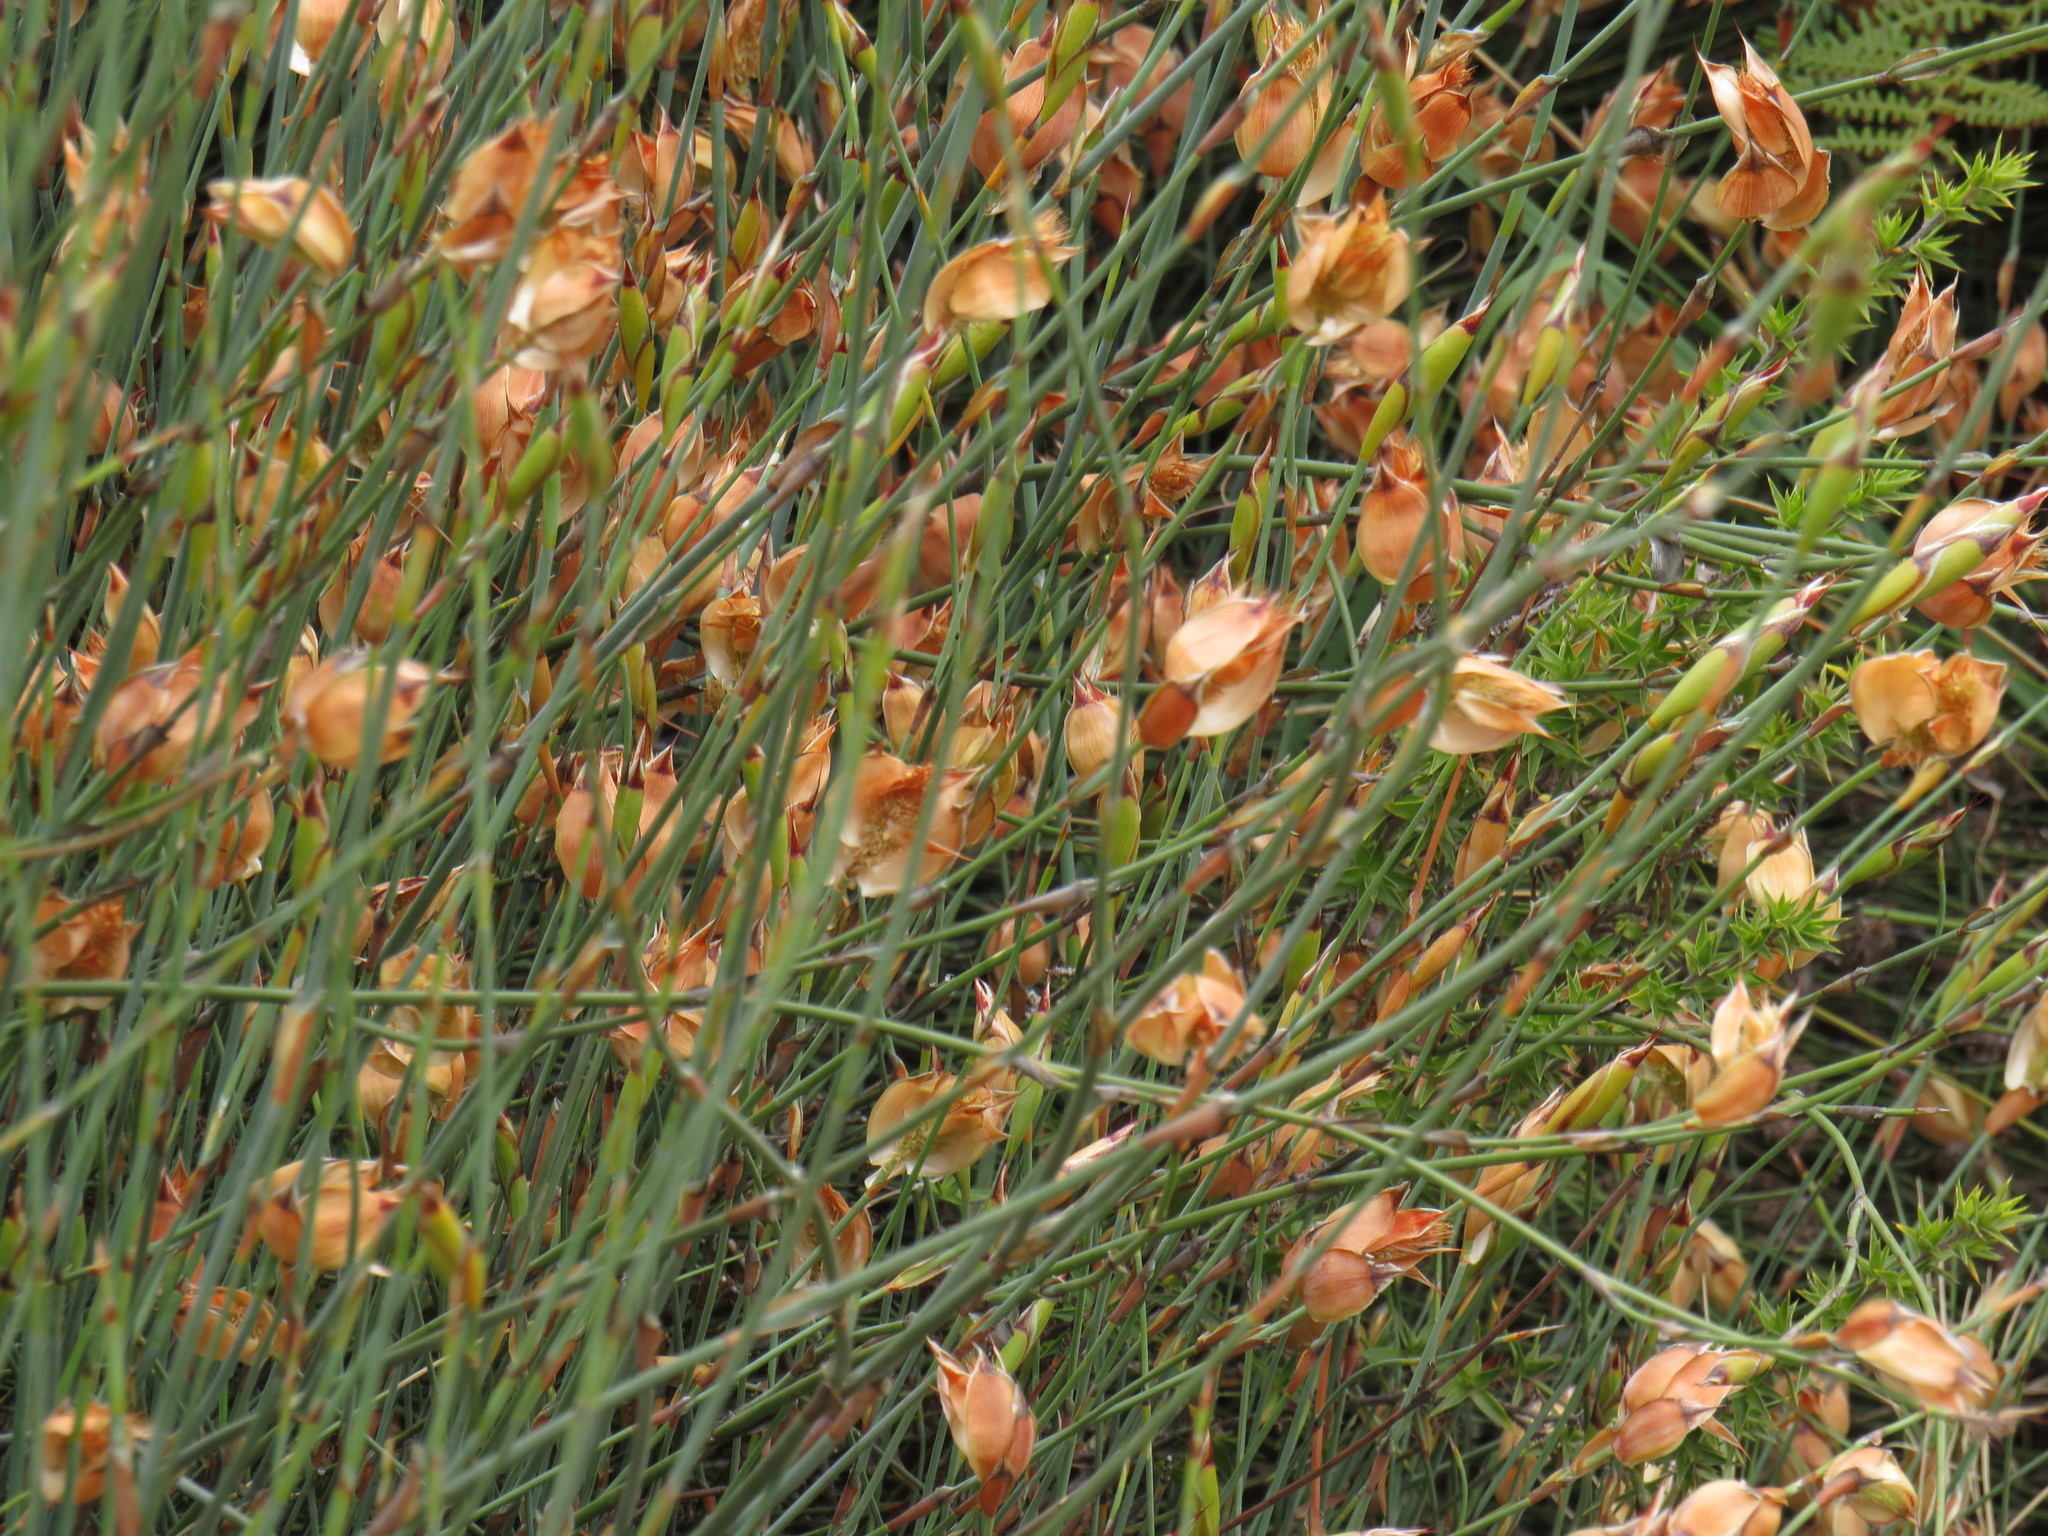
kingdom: Plantae
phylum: Tracheophyta
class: Liliopsida
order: Poales
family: Restionaceae
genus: Willdenowia
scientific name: Willdenowia arescens
